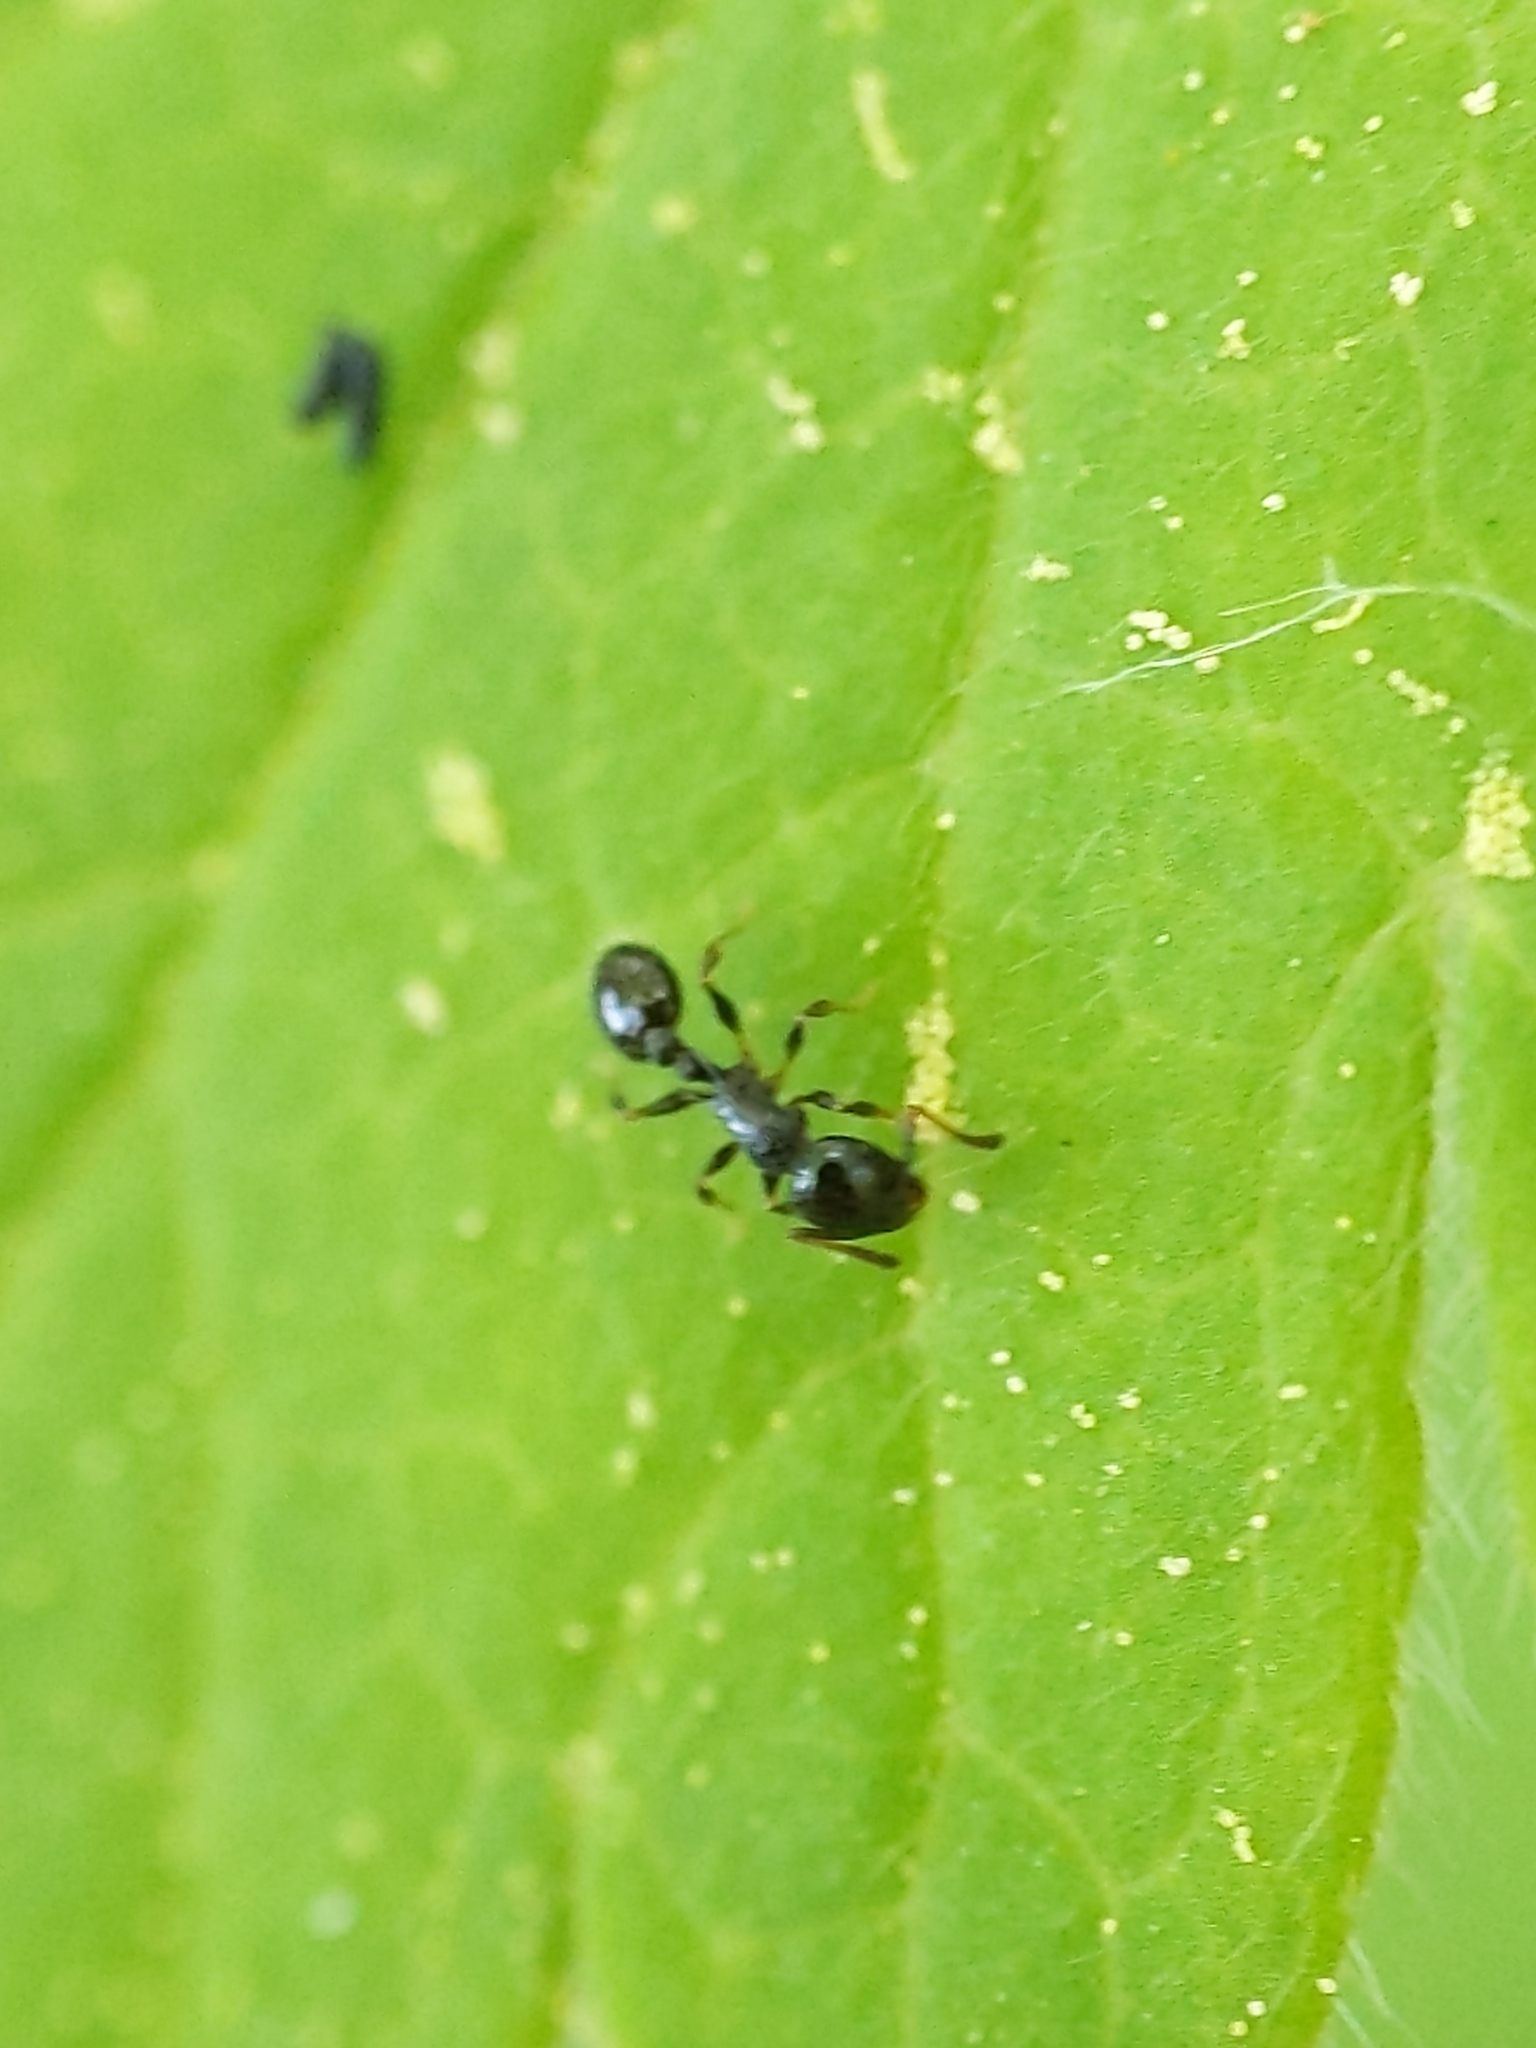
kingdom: Animalia
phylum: Arthropoda
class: Insecta
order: Hymenoptera
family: Formicidae
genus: Temnothorax
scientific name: Temnothorax longispinosus
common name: Long-spined acorn ant
